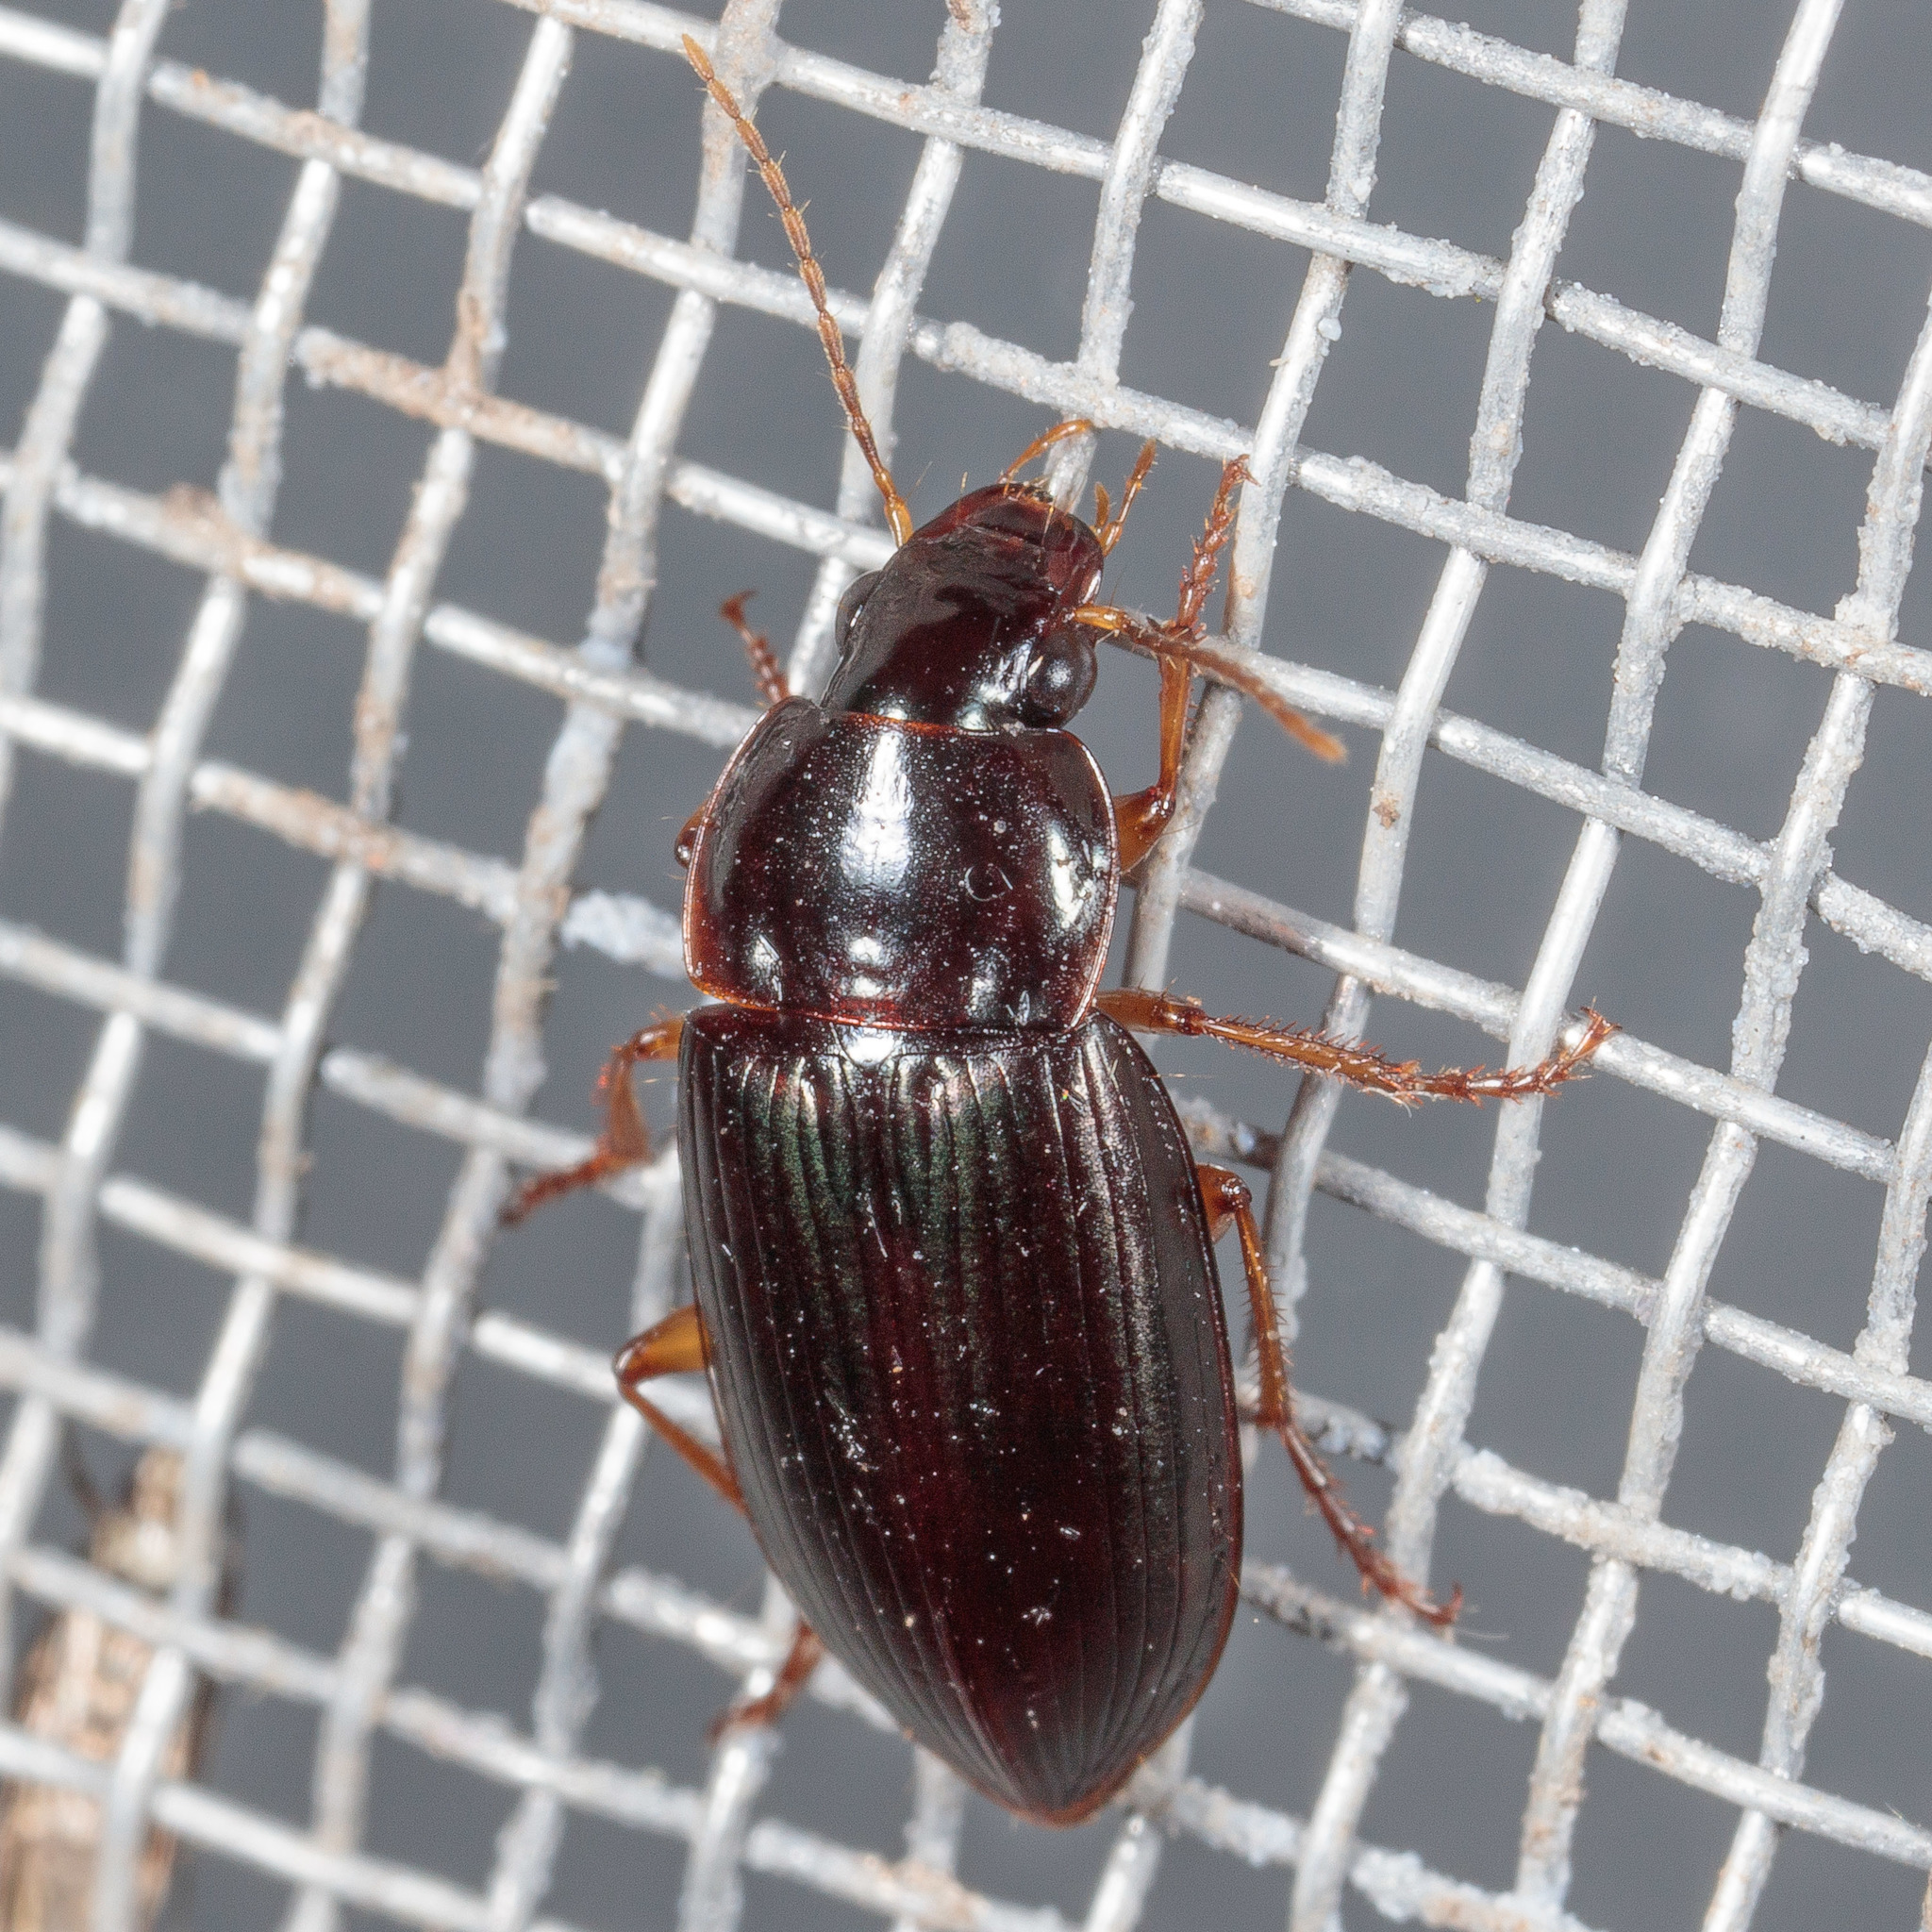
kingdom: Animalia
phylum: Arthropoda
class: Insecta
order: Coleoptera
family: Carabidae
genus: Notiobia
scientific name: Notiobia terminata
